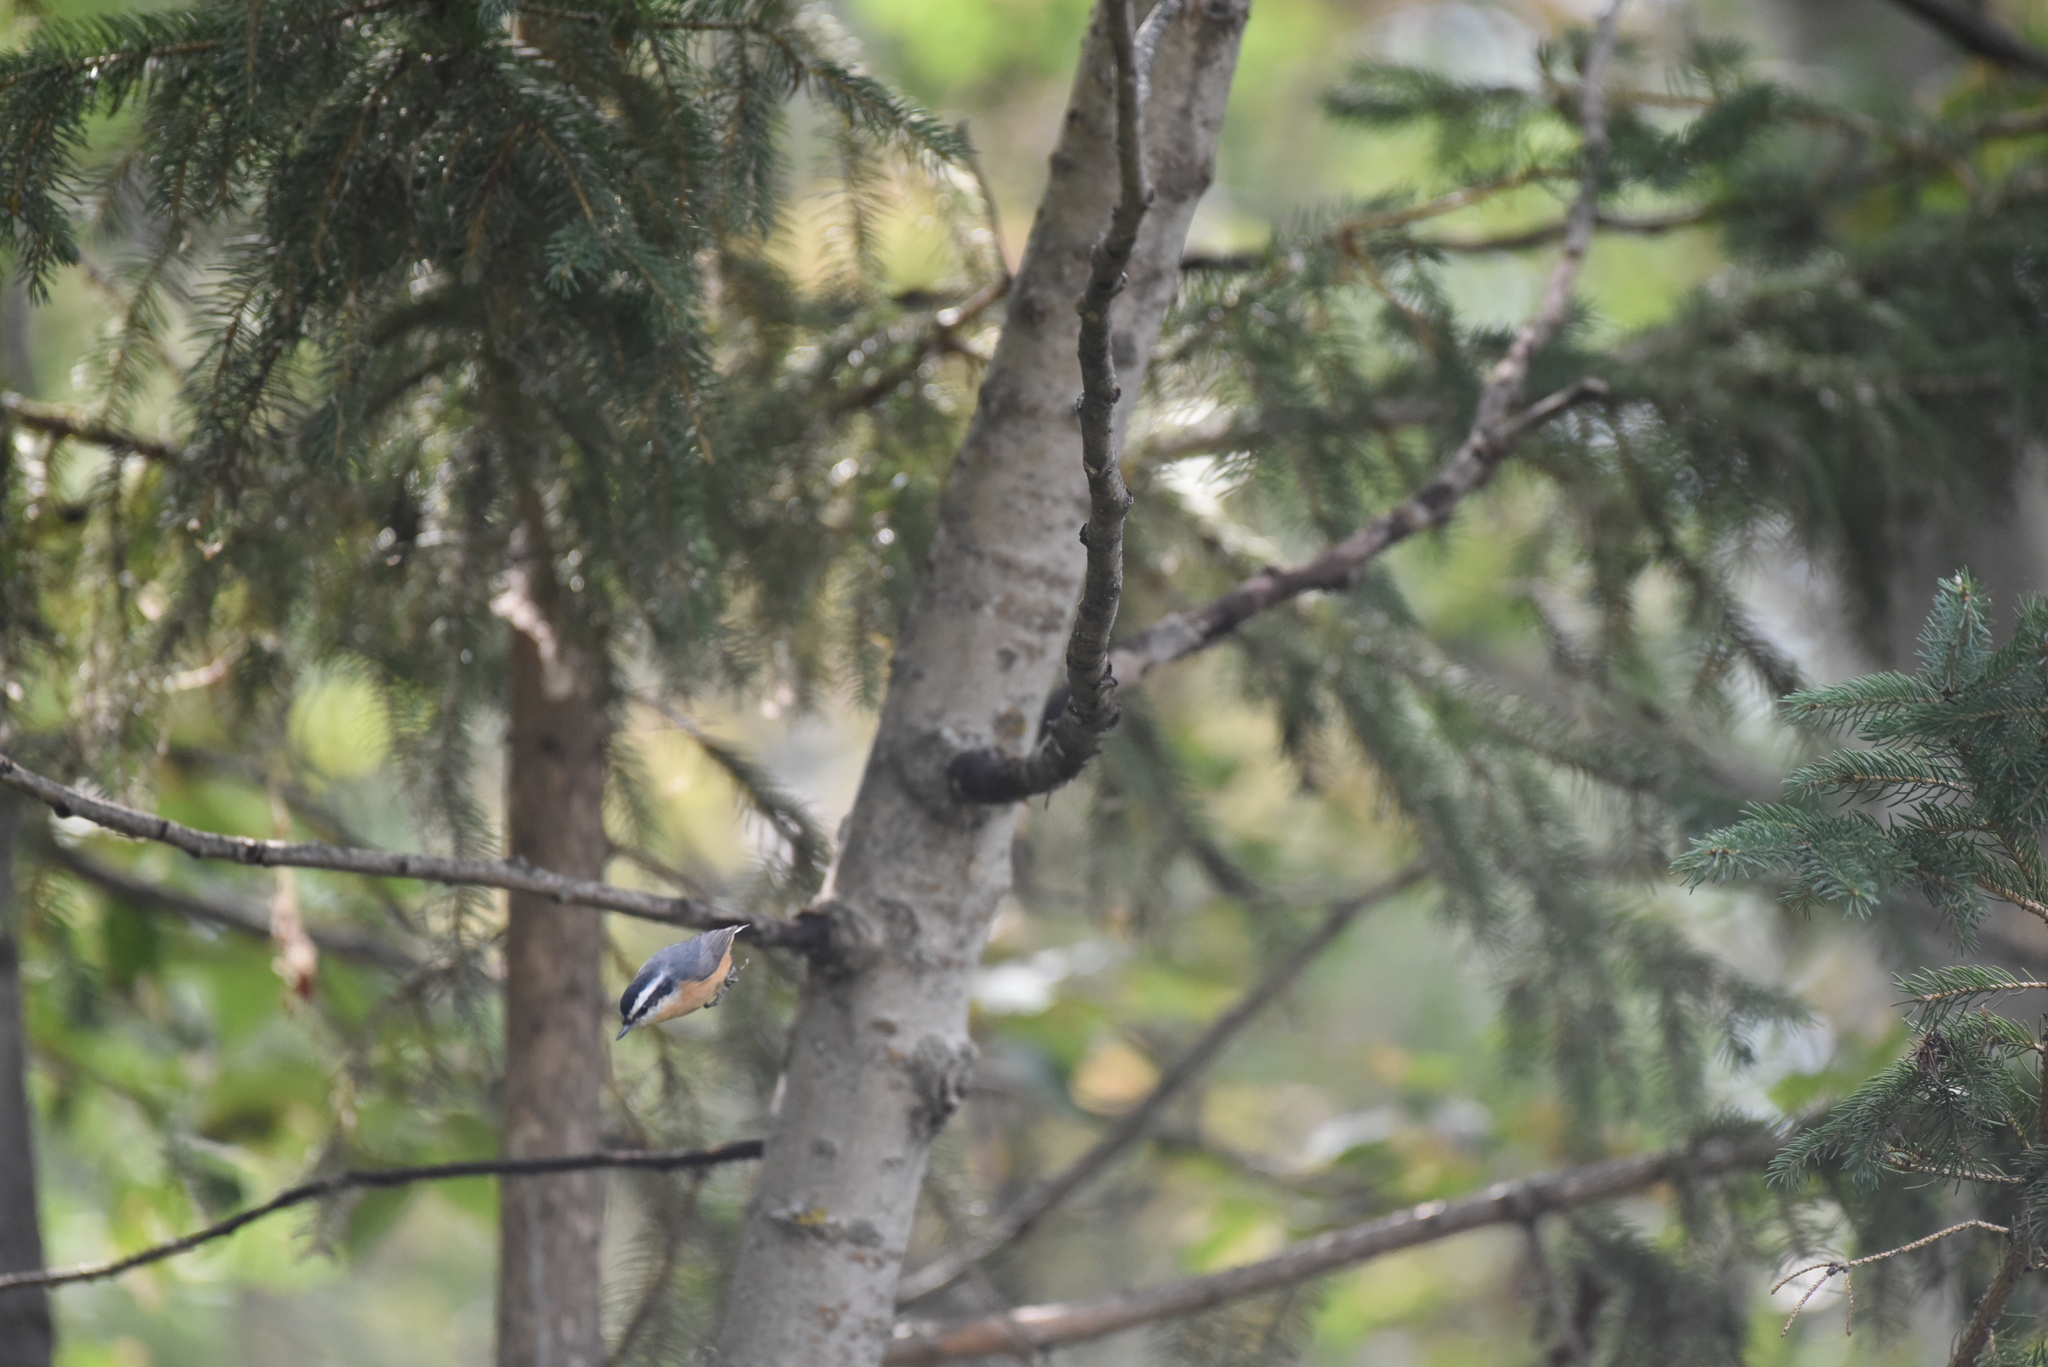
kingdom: Animalia
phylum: Chordata
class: Aves
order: Passeriformes
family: Sittidae
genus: Sitta
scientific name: Sitta canadensis
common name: Red-breasted nuthatch
